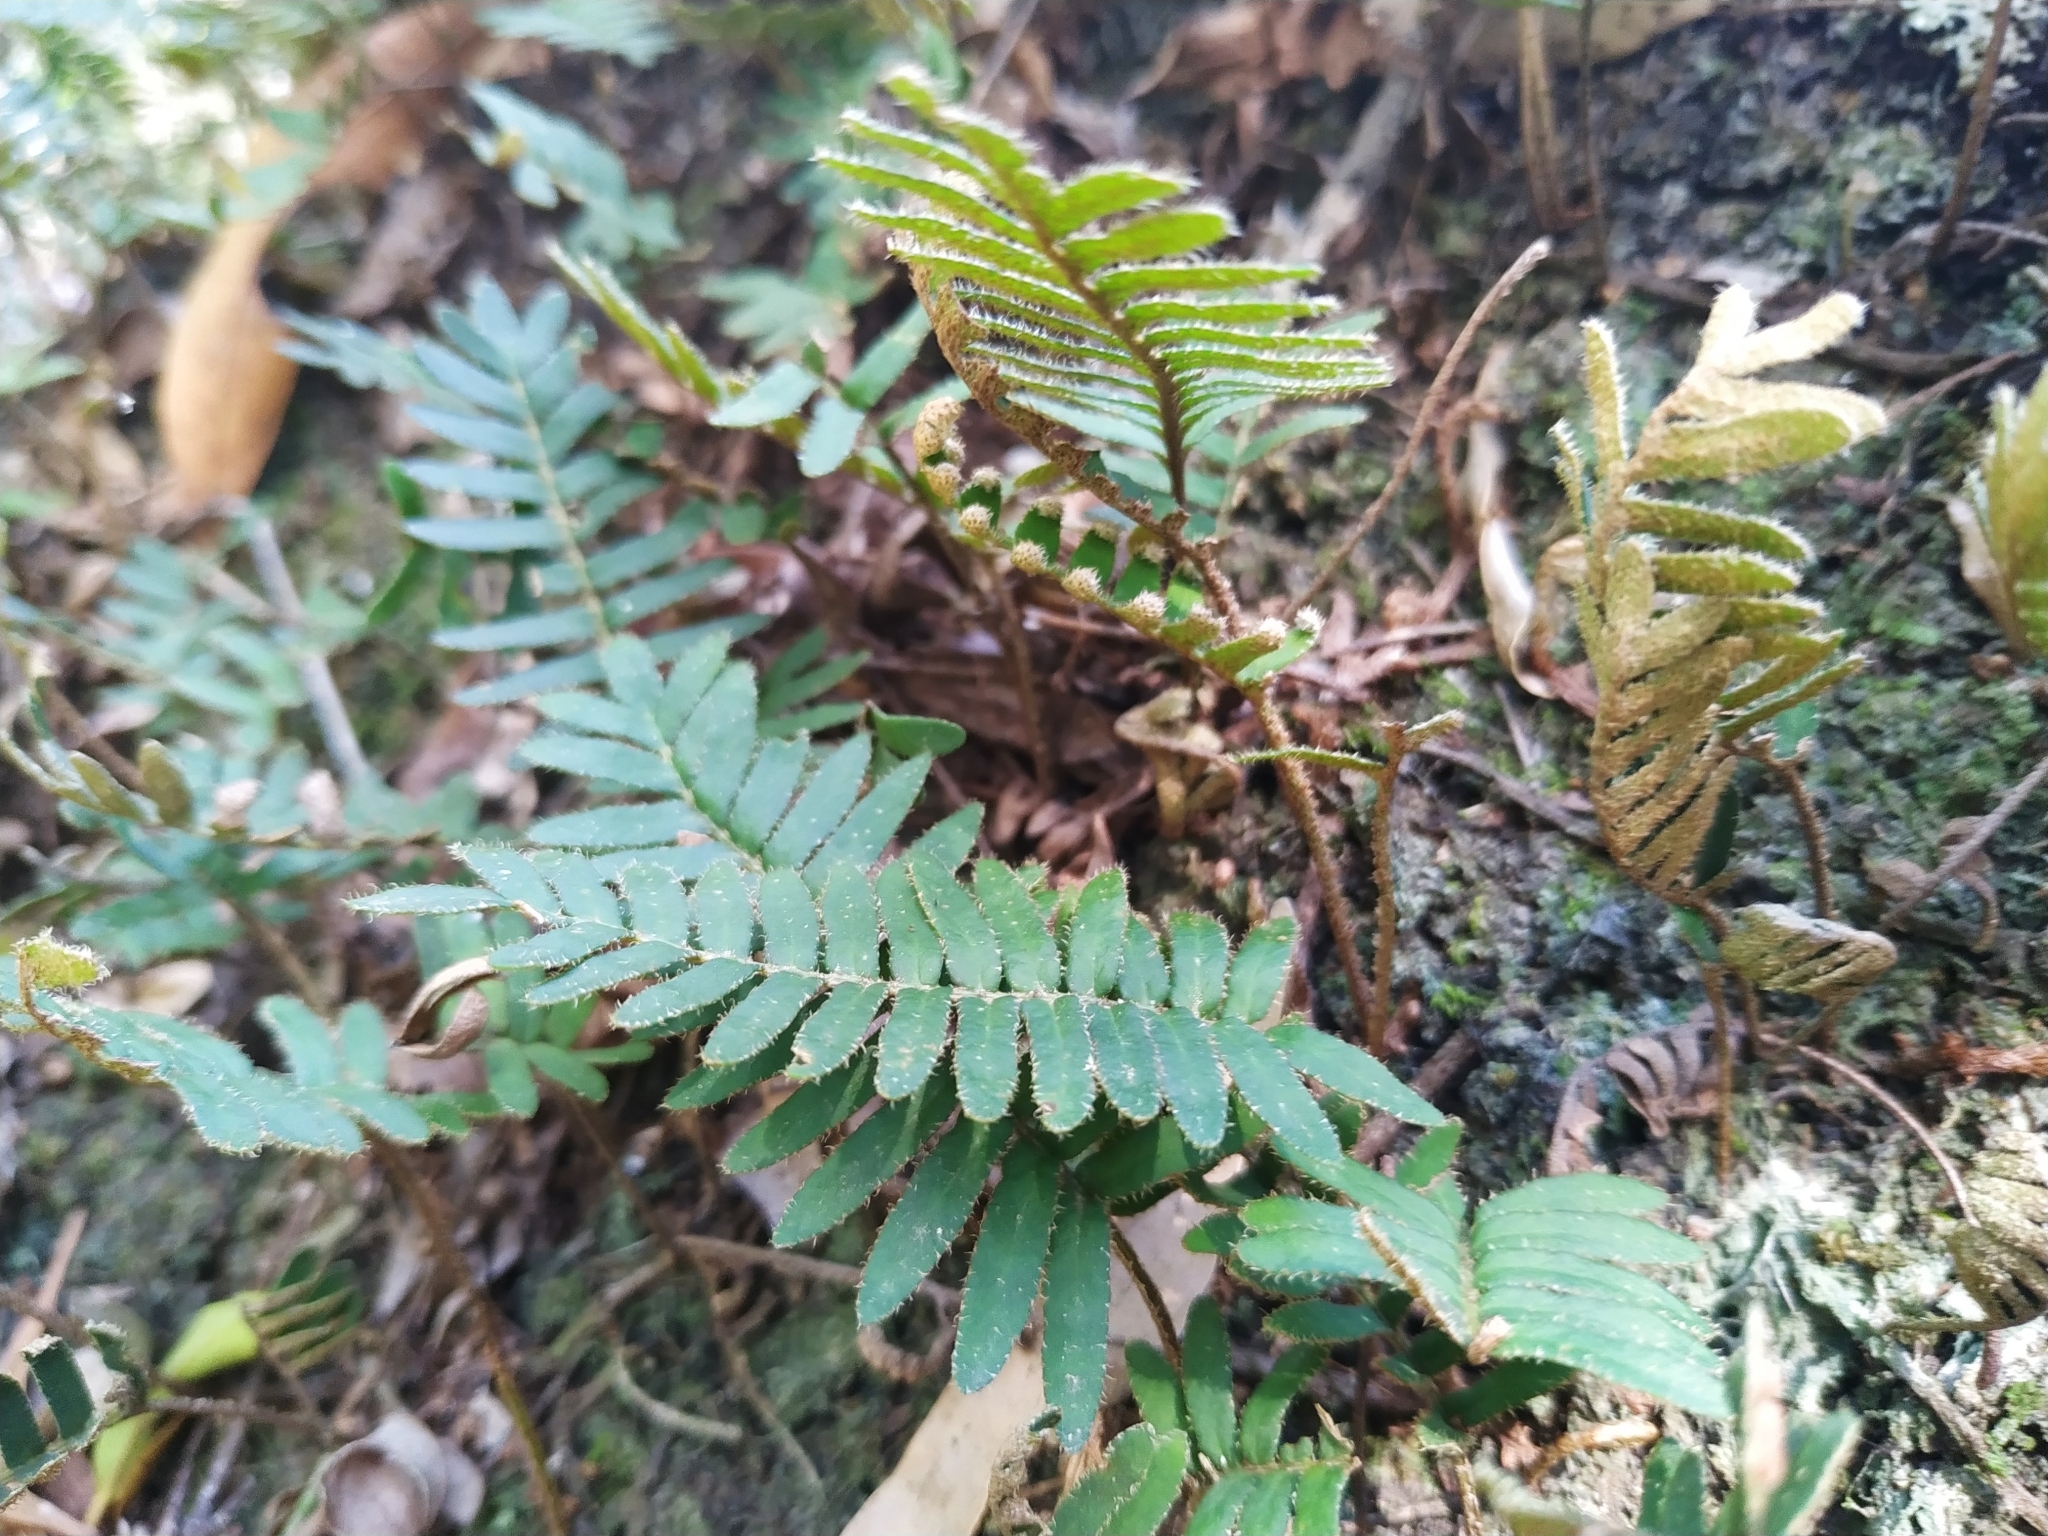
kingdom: Plantae
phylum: Tracheophyta
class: Polypodiopsida
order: Polypodiales
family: Polypodiaceae
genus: Pleopeltis
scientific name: Pleopeltis minima
